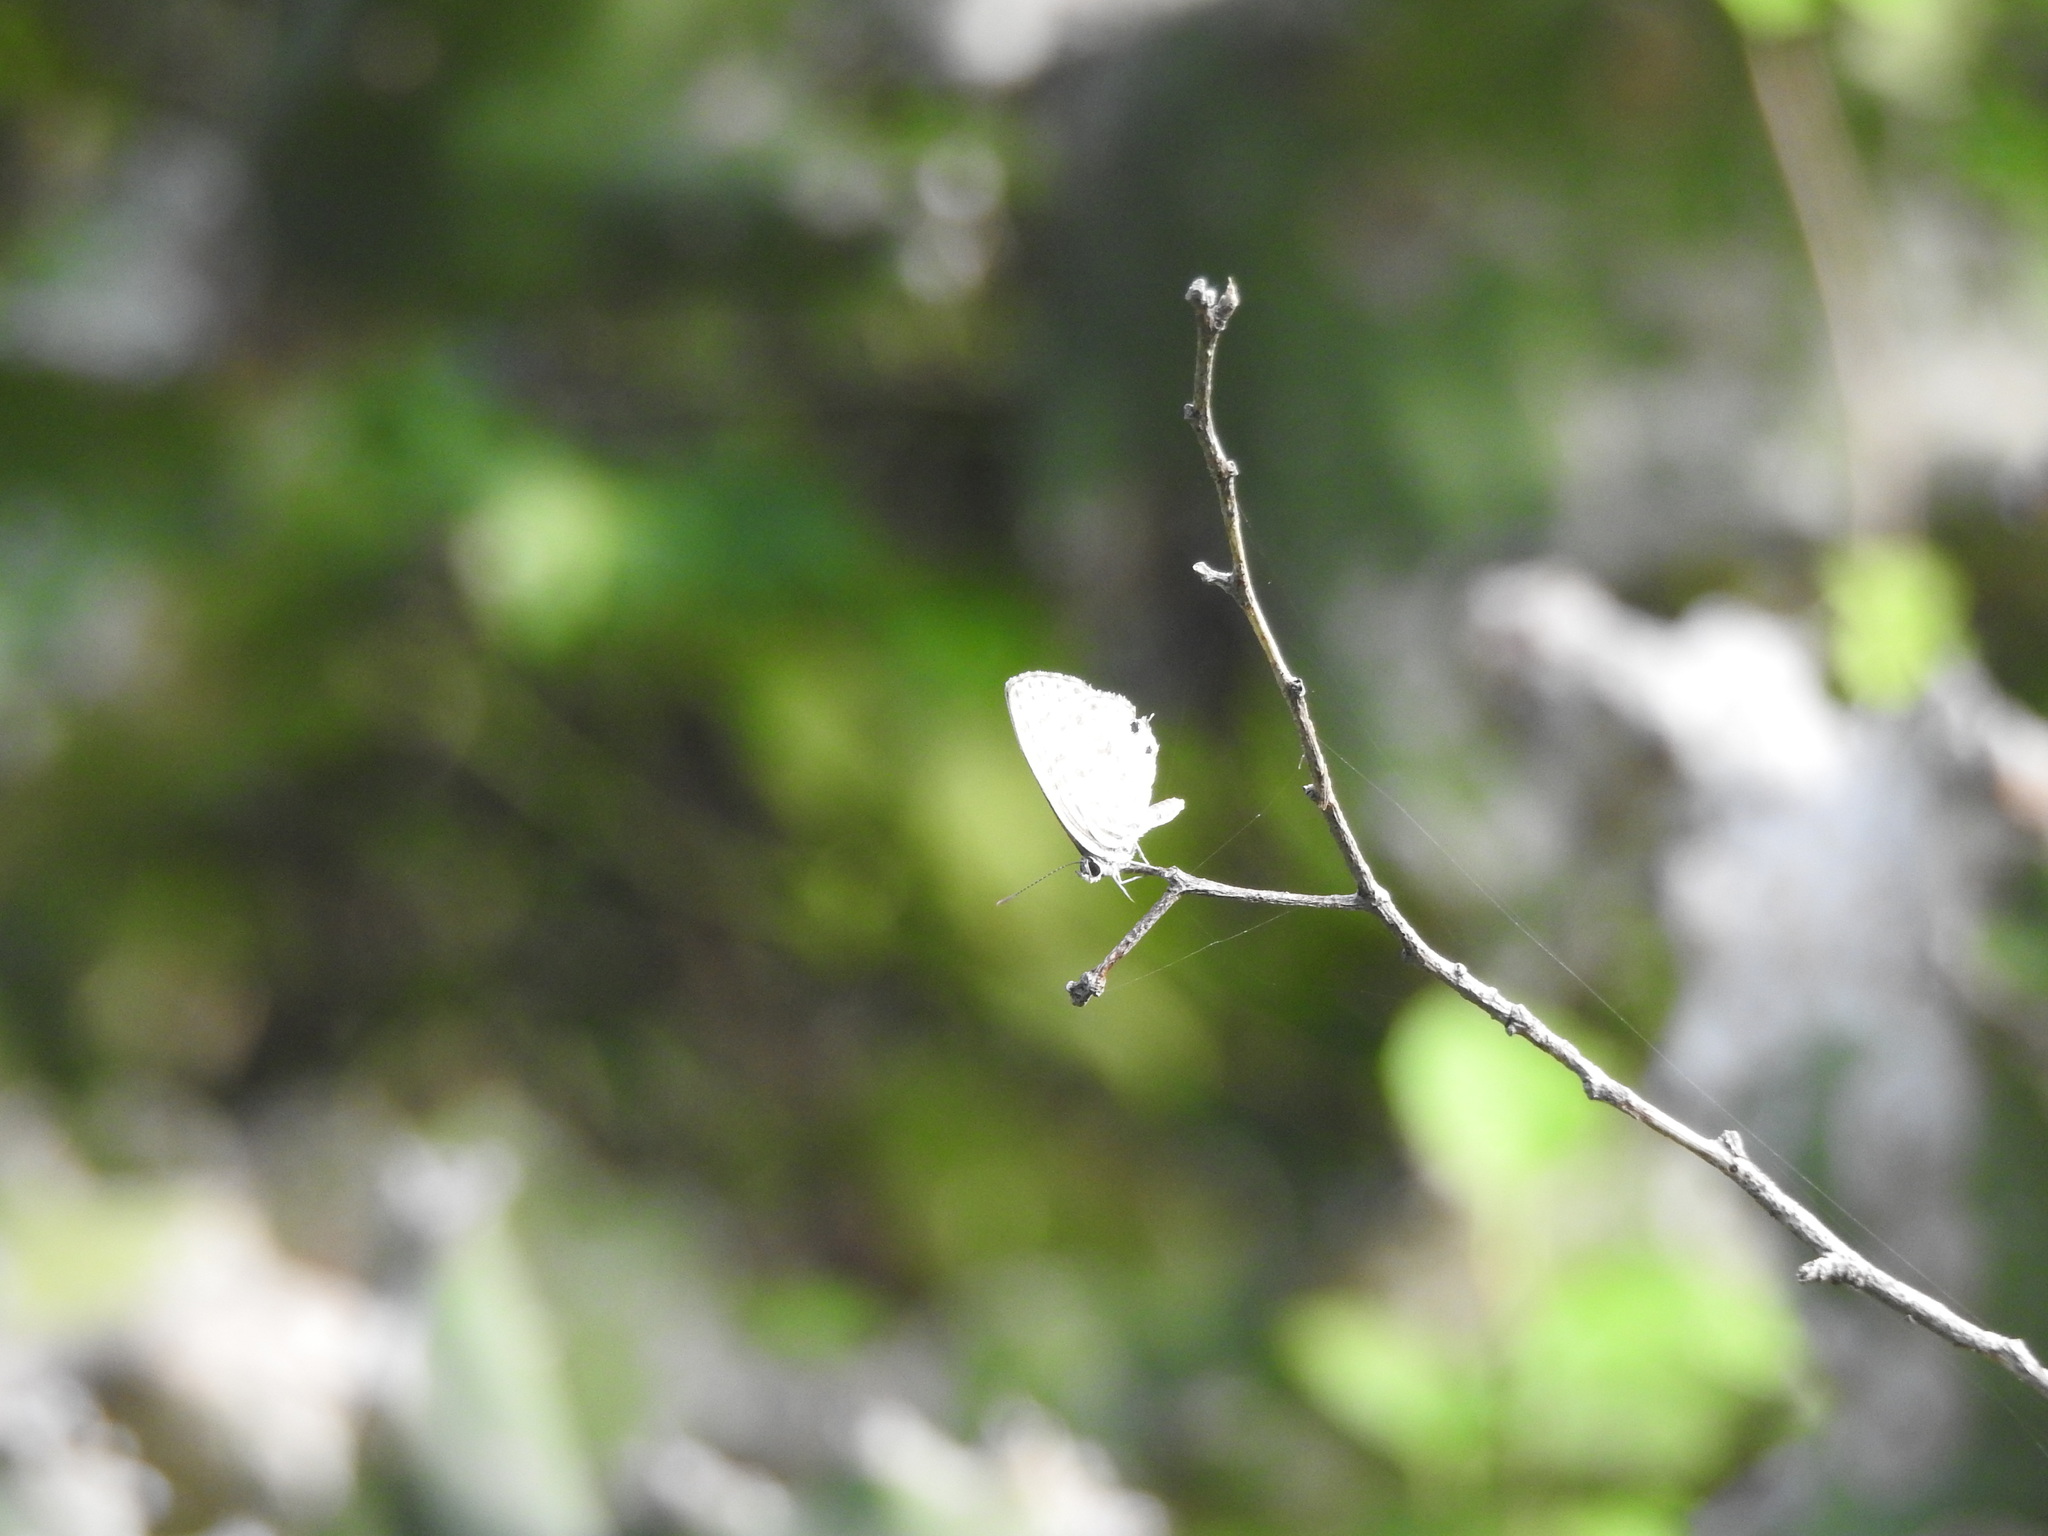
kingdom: Animalia
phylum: Arthropoda
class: Insecta
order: Lepidoptera
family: Lycaenidae
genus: Leptotes
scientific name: Leptotes plinius
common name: Zebra blue
